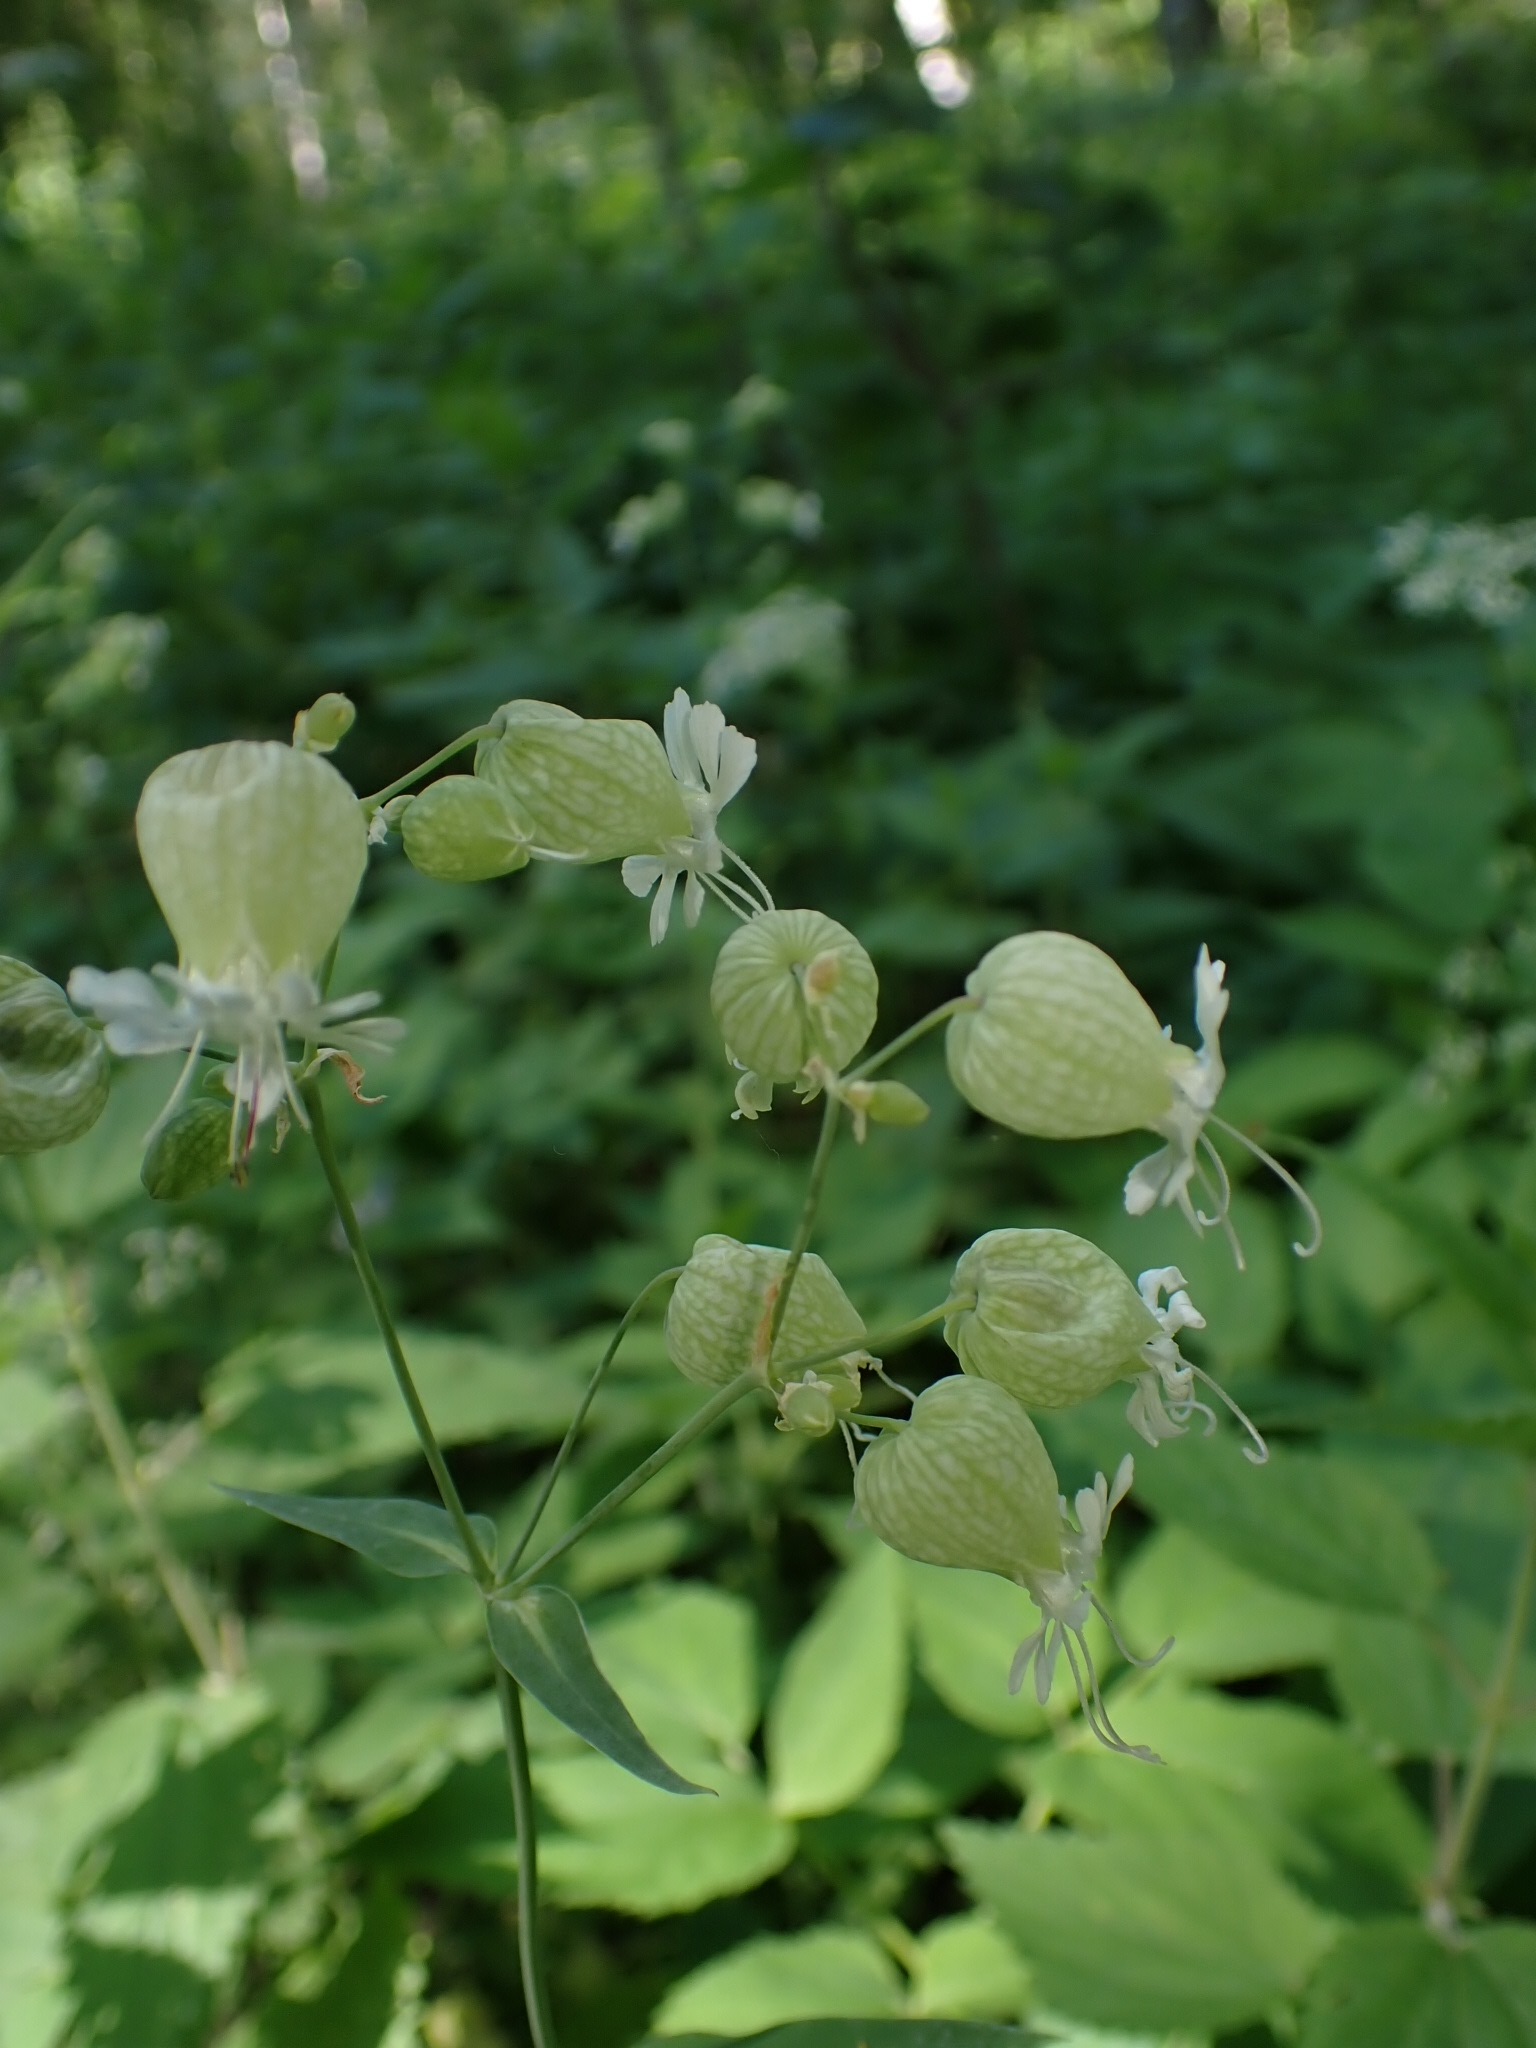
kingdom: Plantae
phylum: Tracheophyta
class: Magnoliopsida
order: Caryophyllales
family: Caryophyllaceae
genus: Silene
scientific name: Silene vulgaris
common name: Bladder campion
